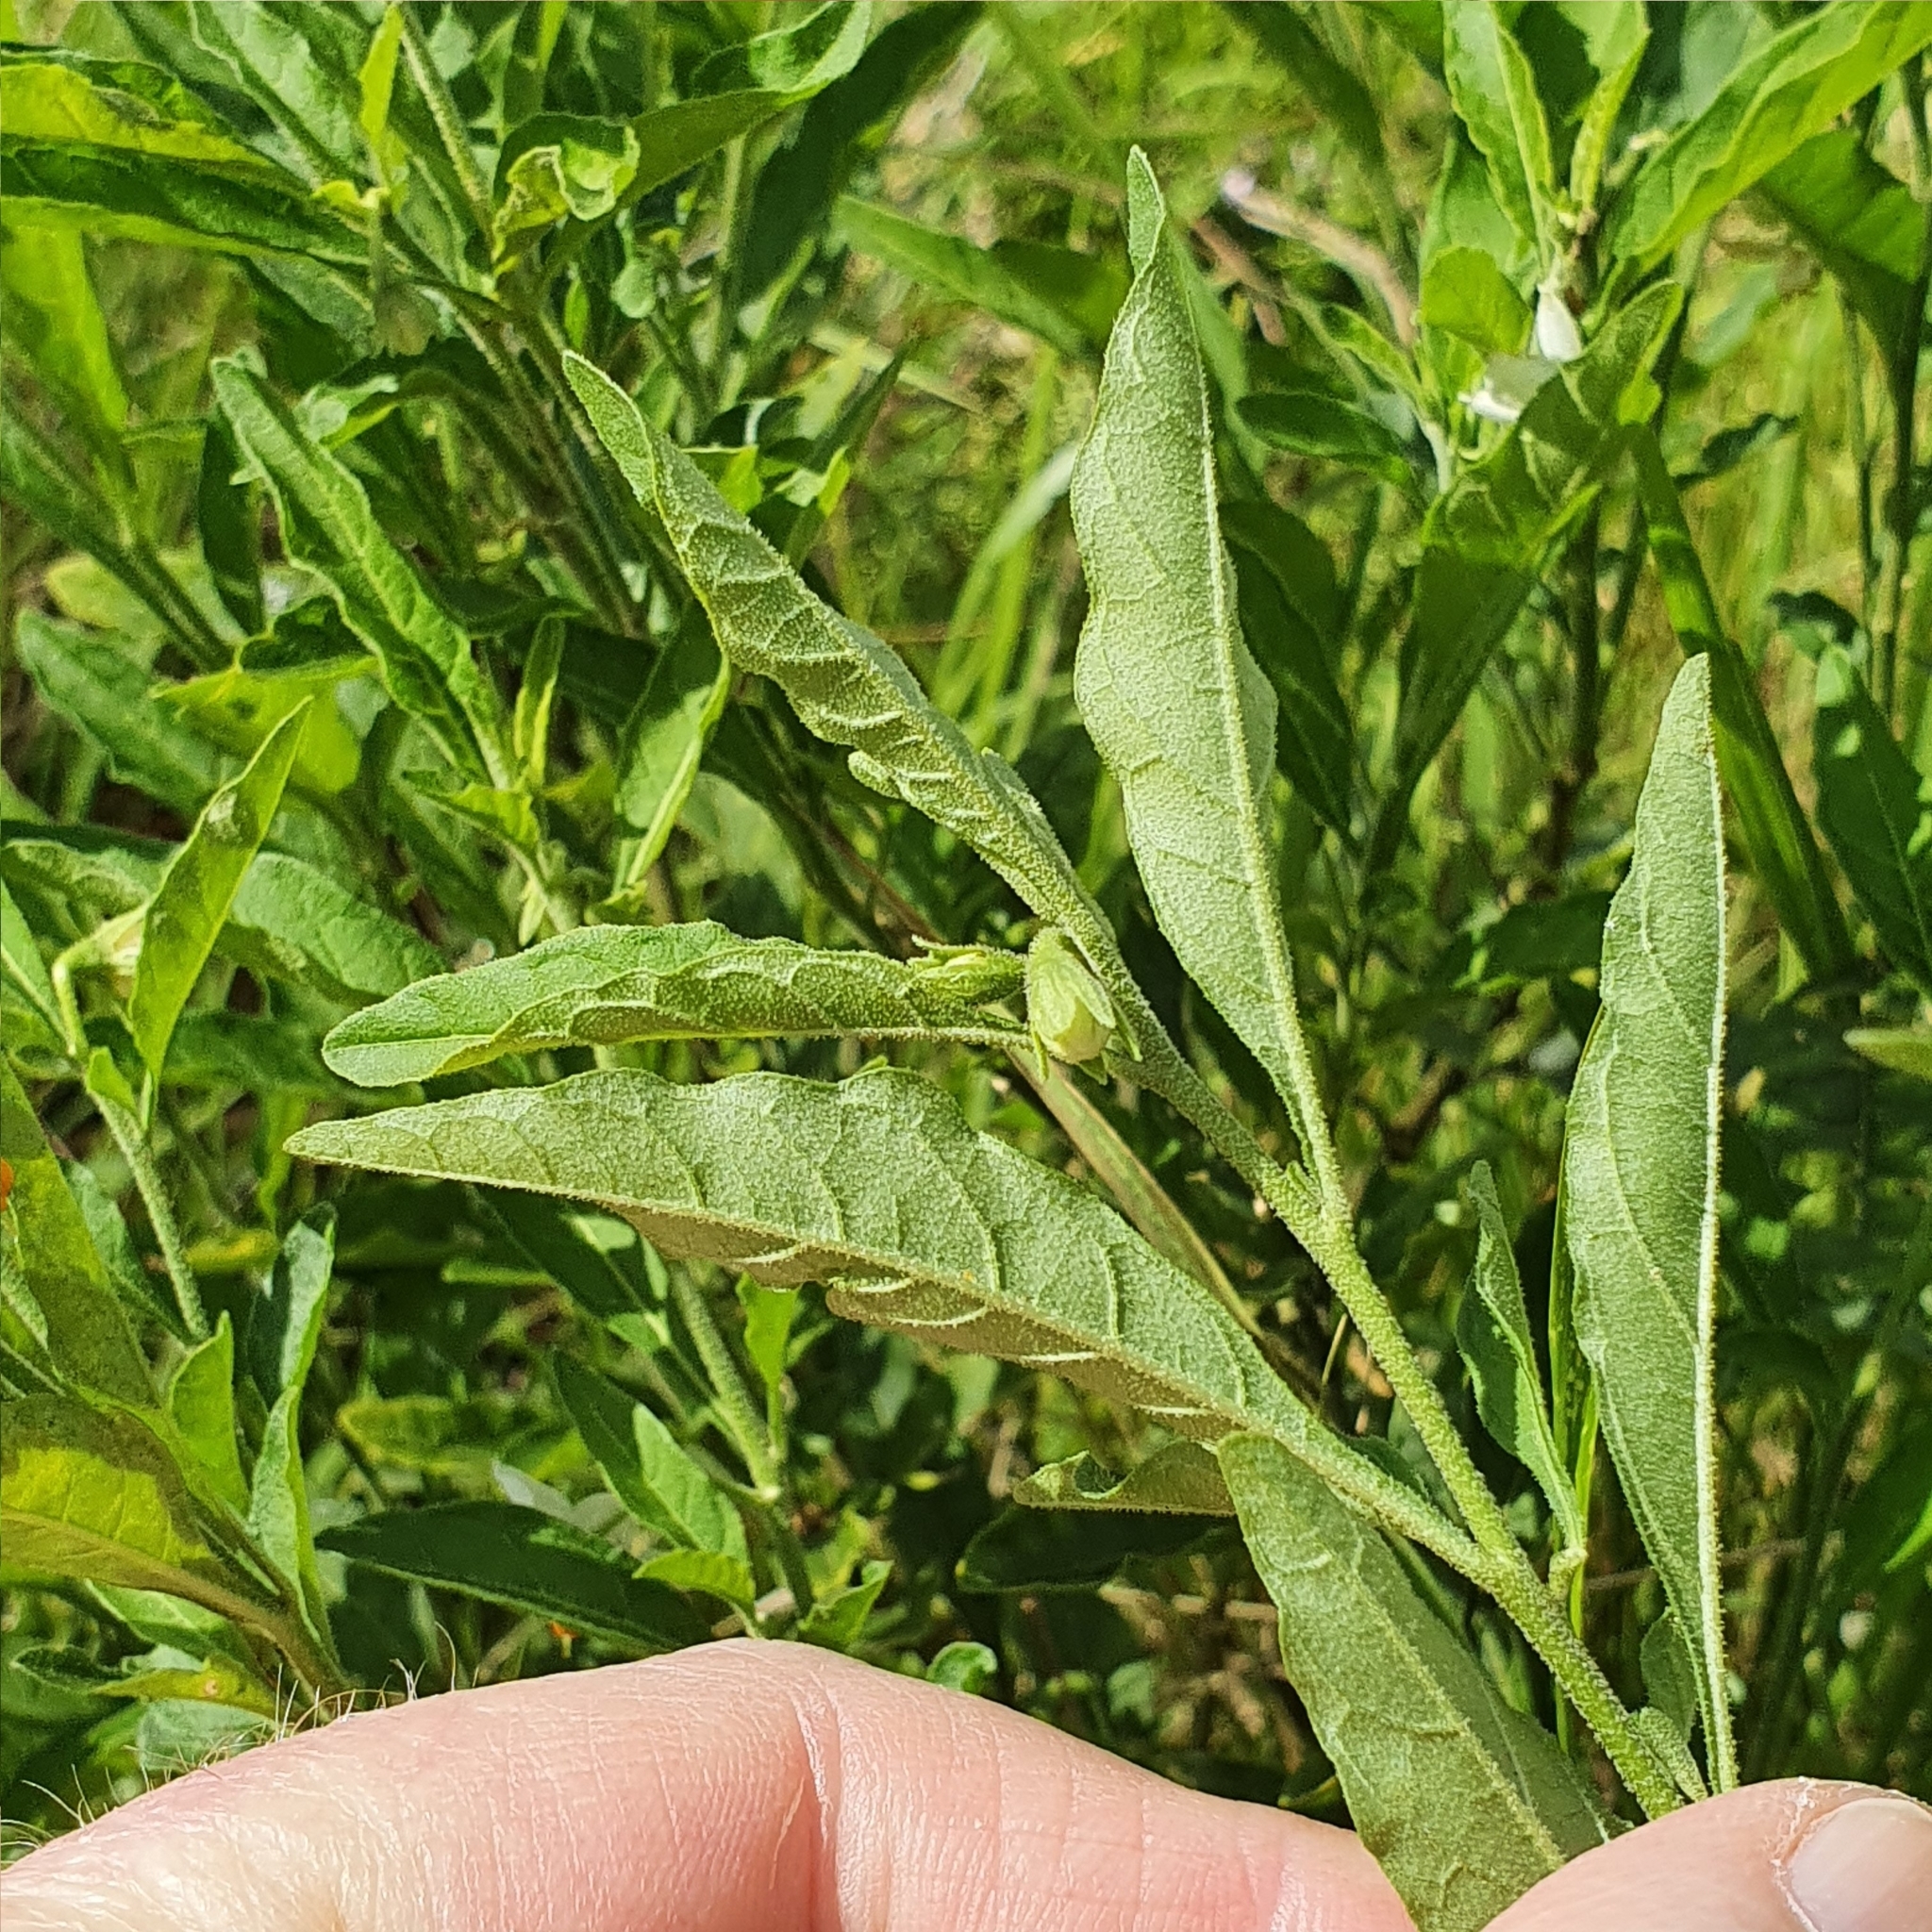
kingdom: Plantae
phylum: Tracheophyta
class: Magnoliopsida
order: Solanales
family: Solanaceae
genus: Solanum
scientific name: Solanum pseudocapsicum
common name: Jerusalem cherry
